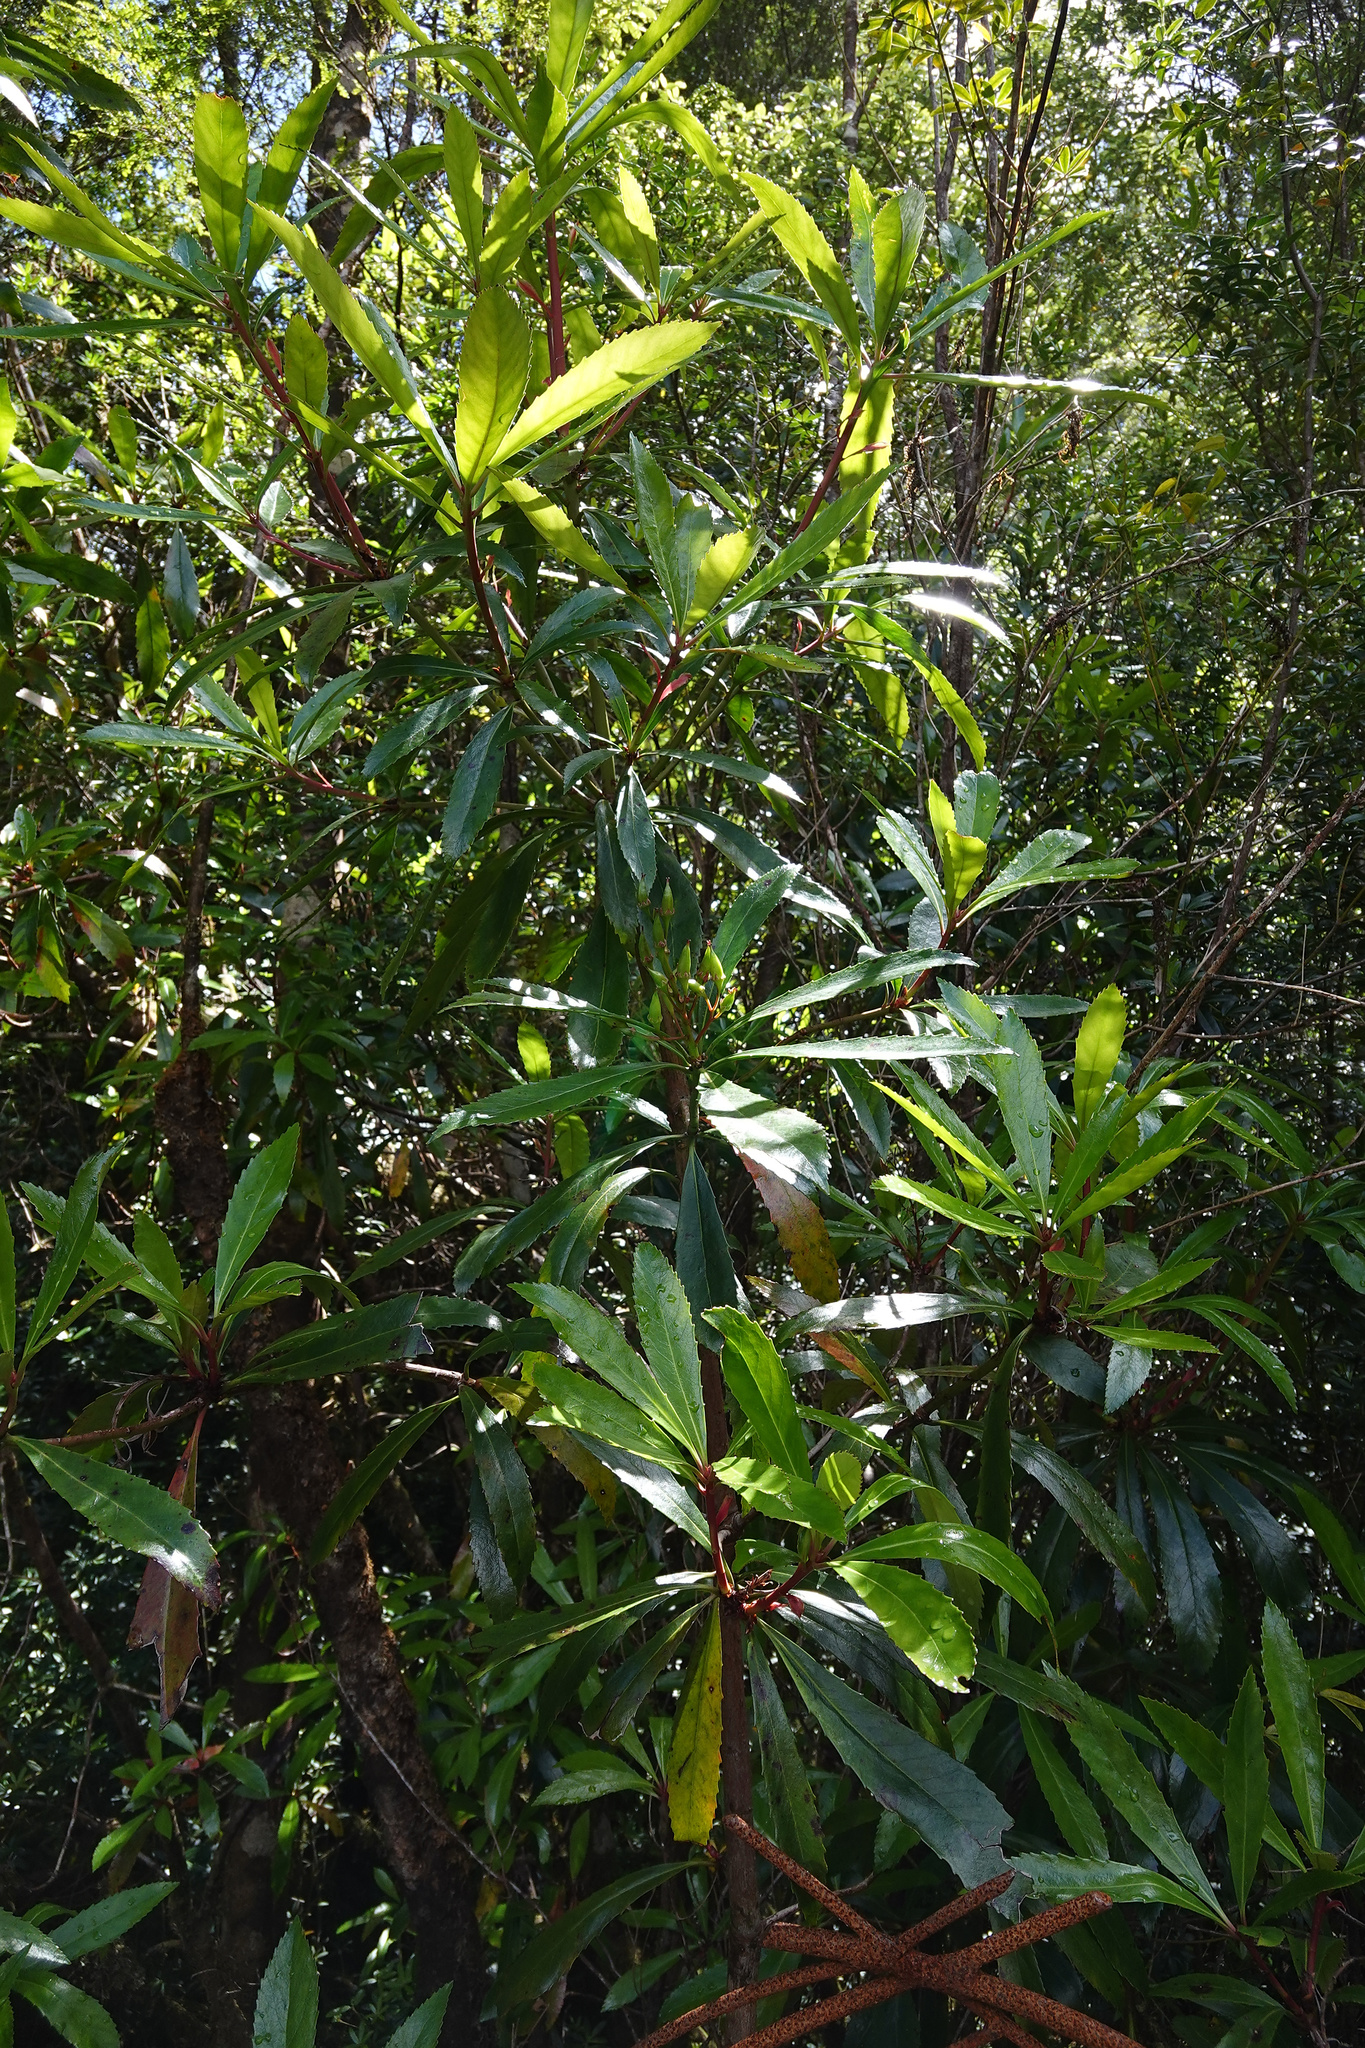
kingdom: Plantae
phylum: Tracheophyta
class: Magnoliopsida
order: Escalloniales
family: Escalloniaceae
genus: Anopterus
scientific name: Anopterus glandulosus
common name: Tasmanian-laurel
